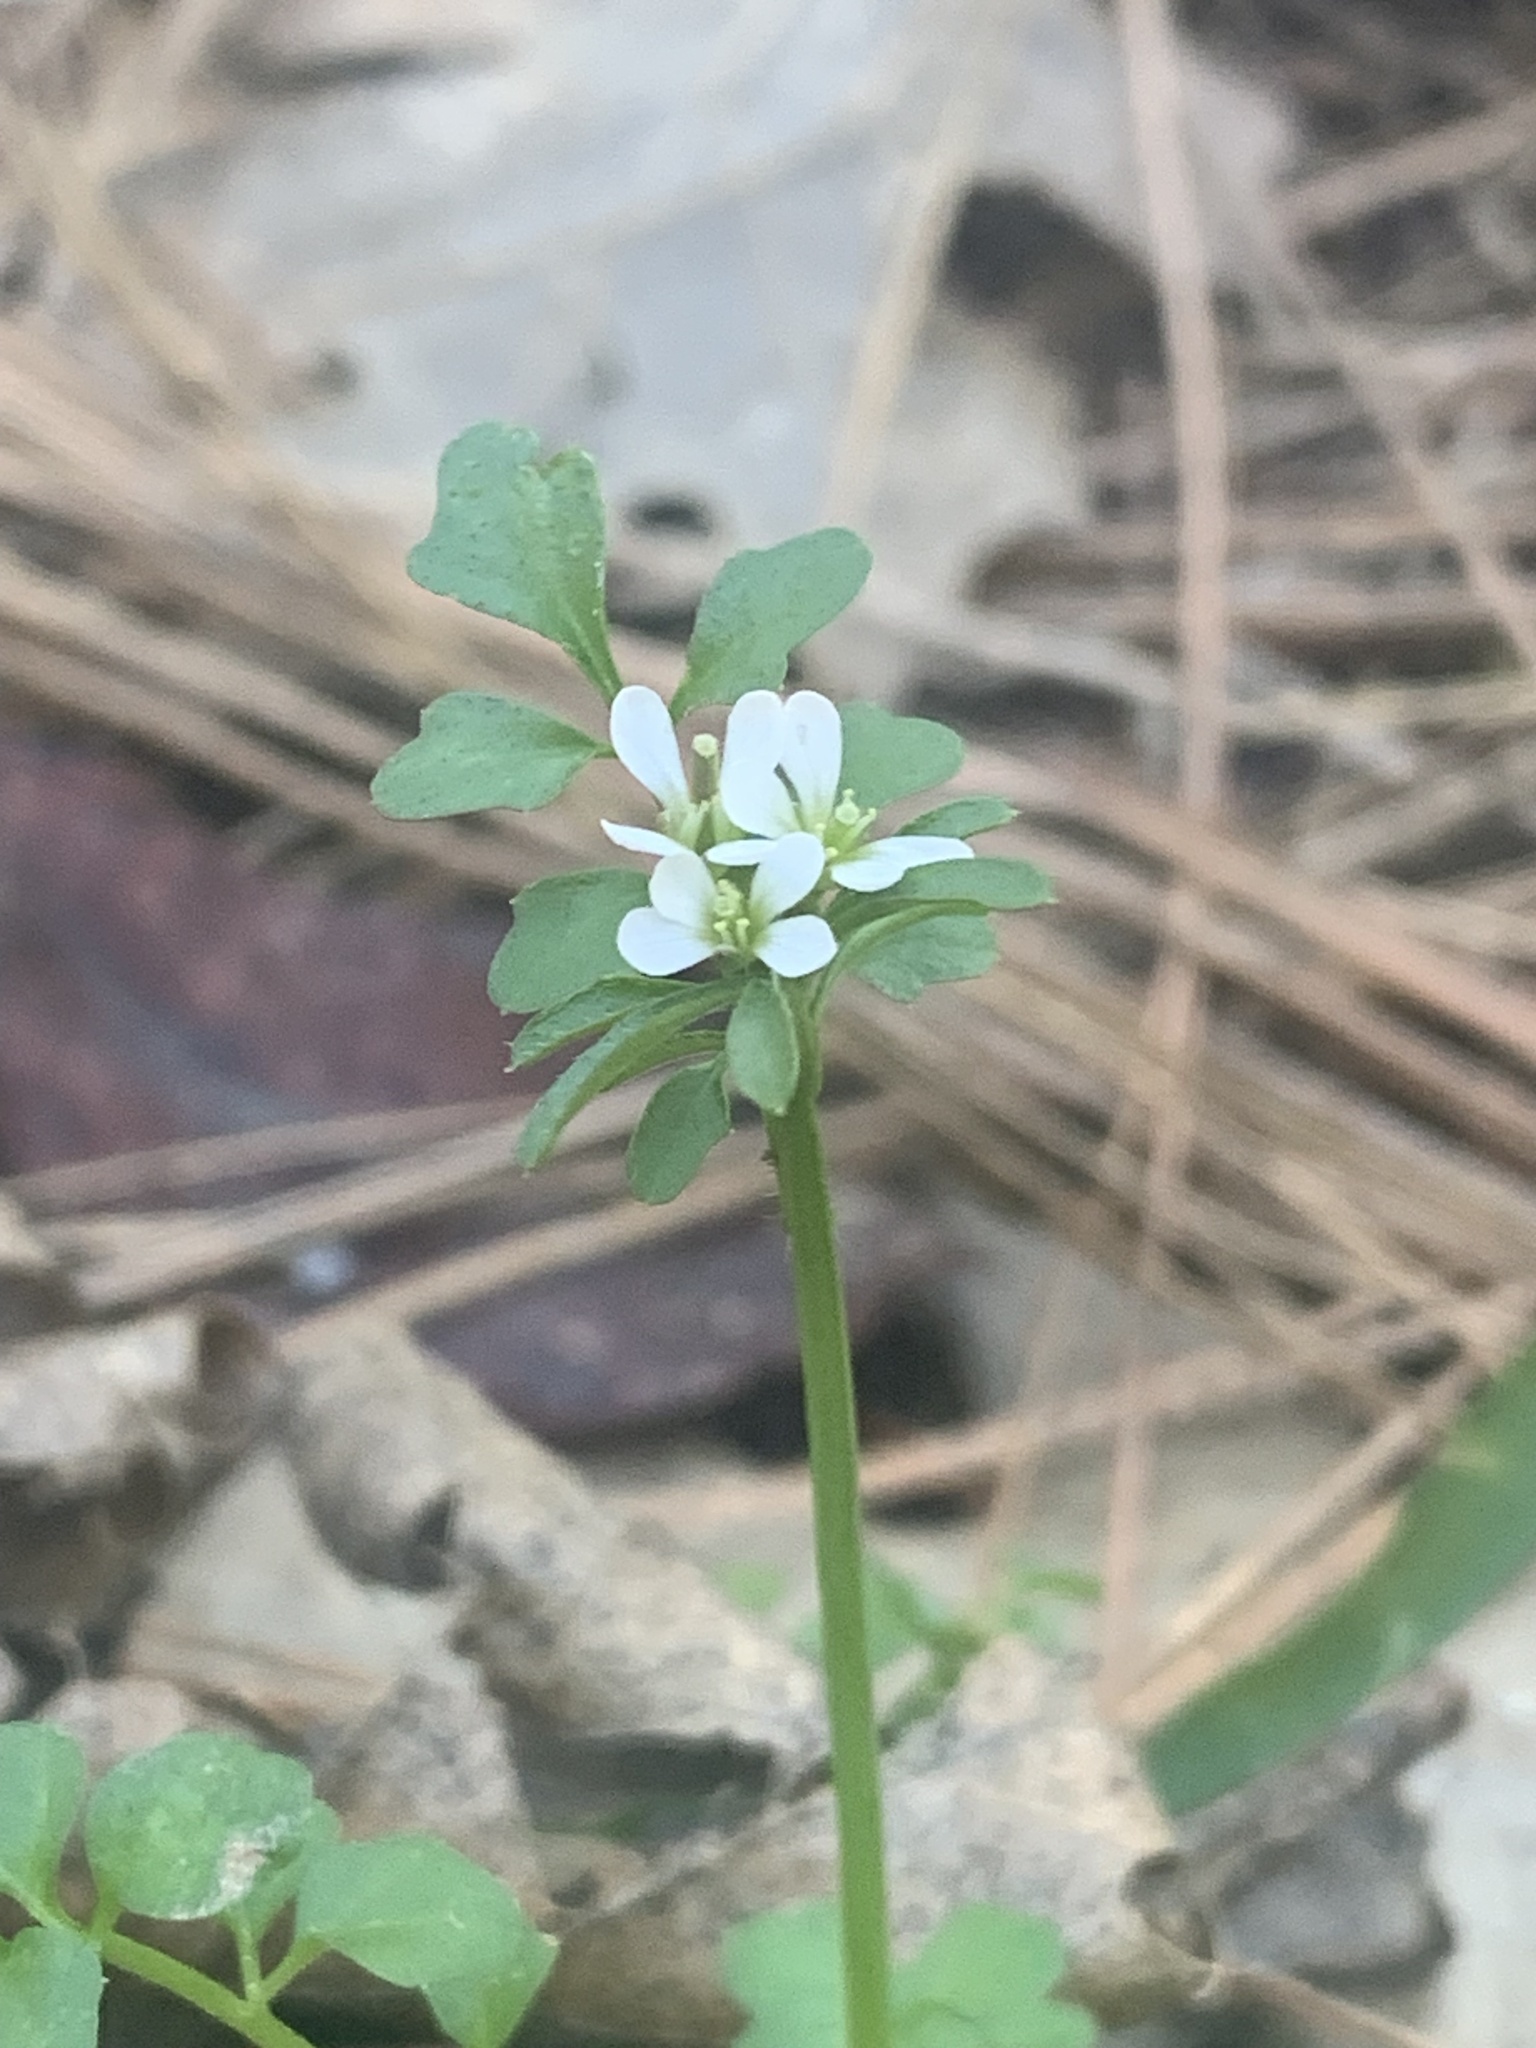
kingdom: Plantae
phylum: Tracheophyta
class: Magnoliopsida
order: Brassicales
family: Brassicaceae
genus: Cardamine
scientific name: Cardamine hirsuta
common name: Hairy bittercress
